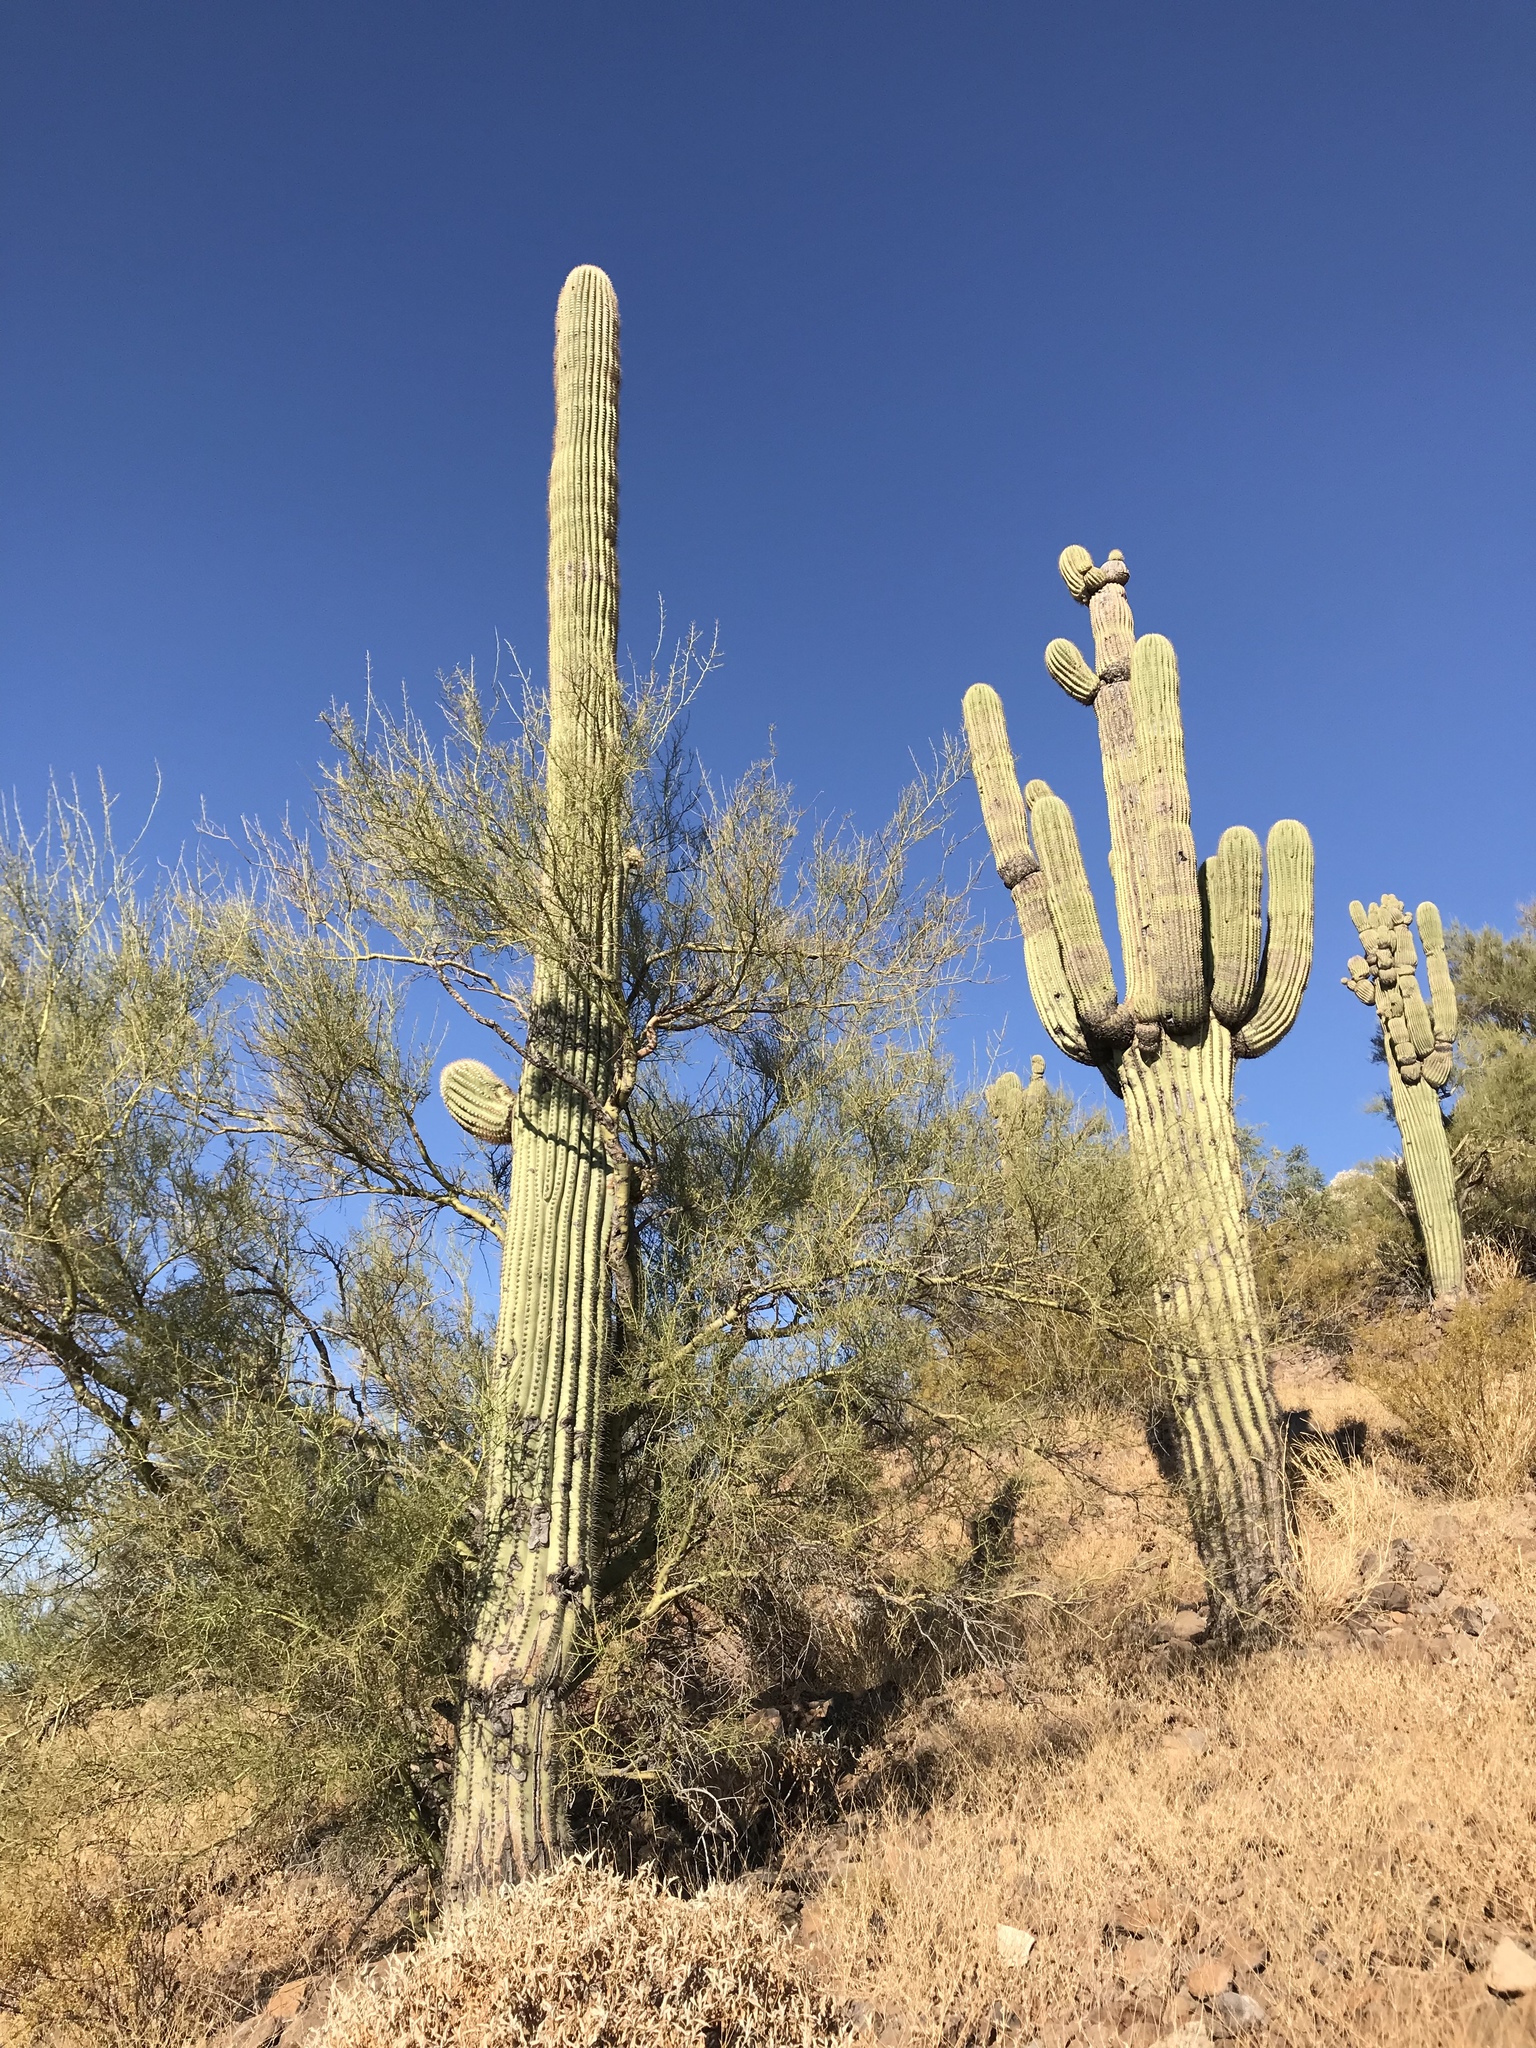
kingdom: Plantae
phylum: Tracheophyta
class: Magnoliopsida
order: Caryophyllales
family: Cactaceae
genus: Carnegiea
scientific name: Carnegiea gigantea
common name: Saguaro
